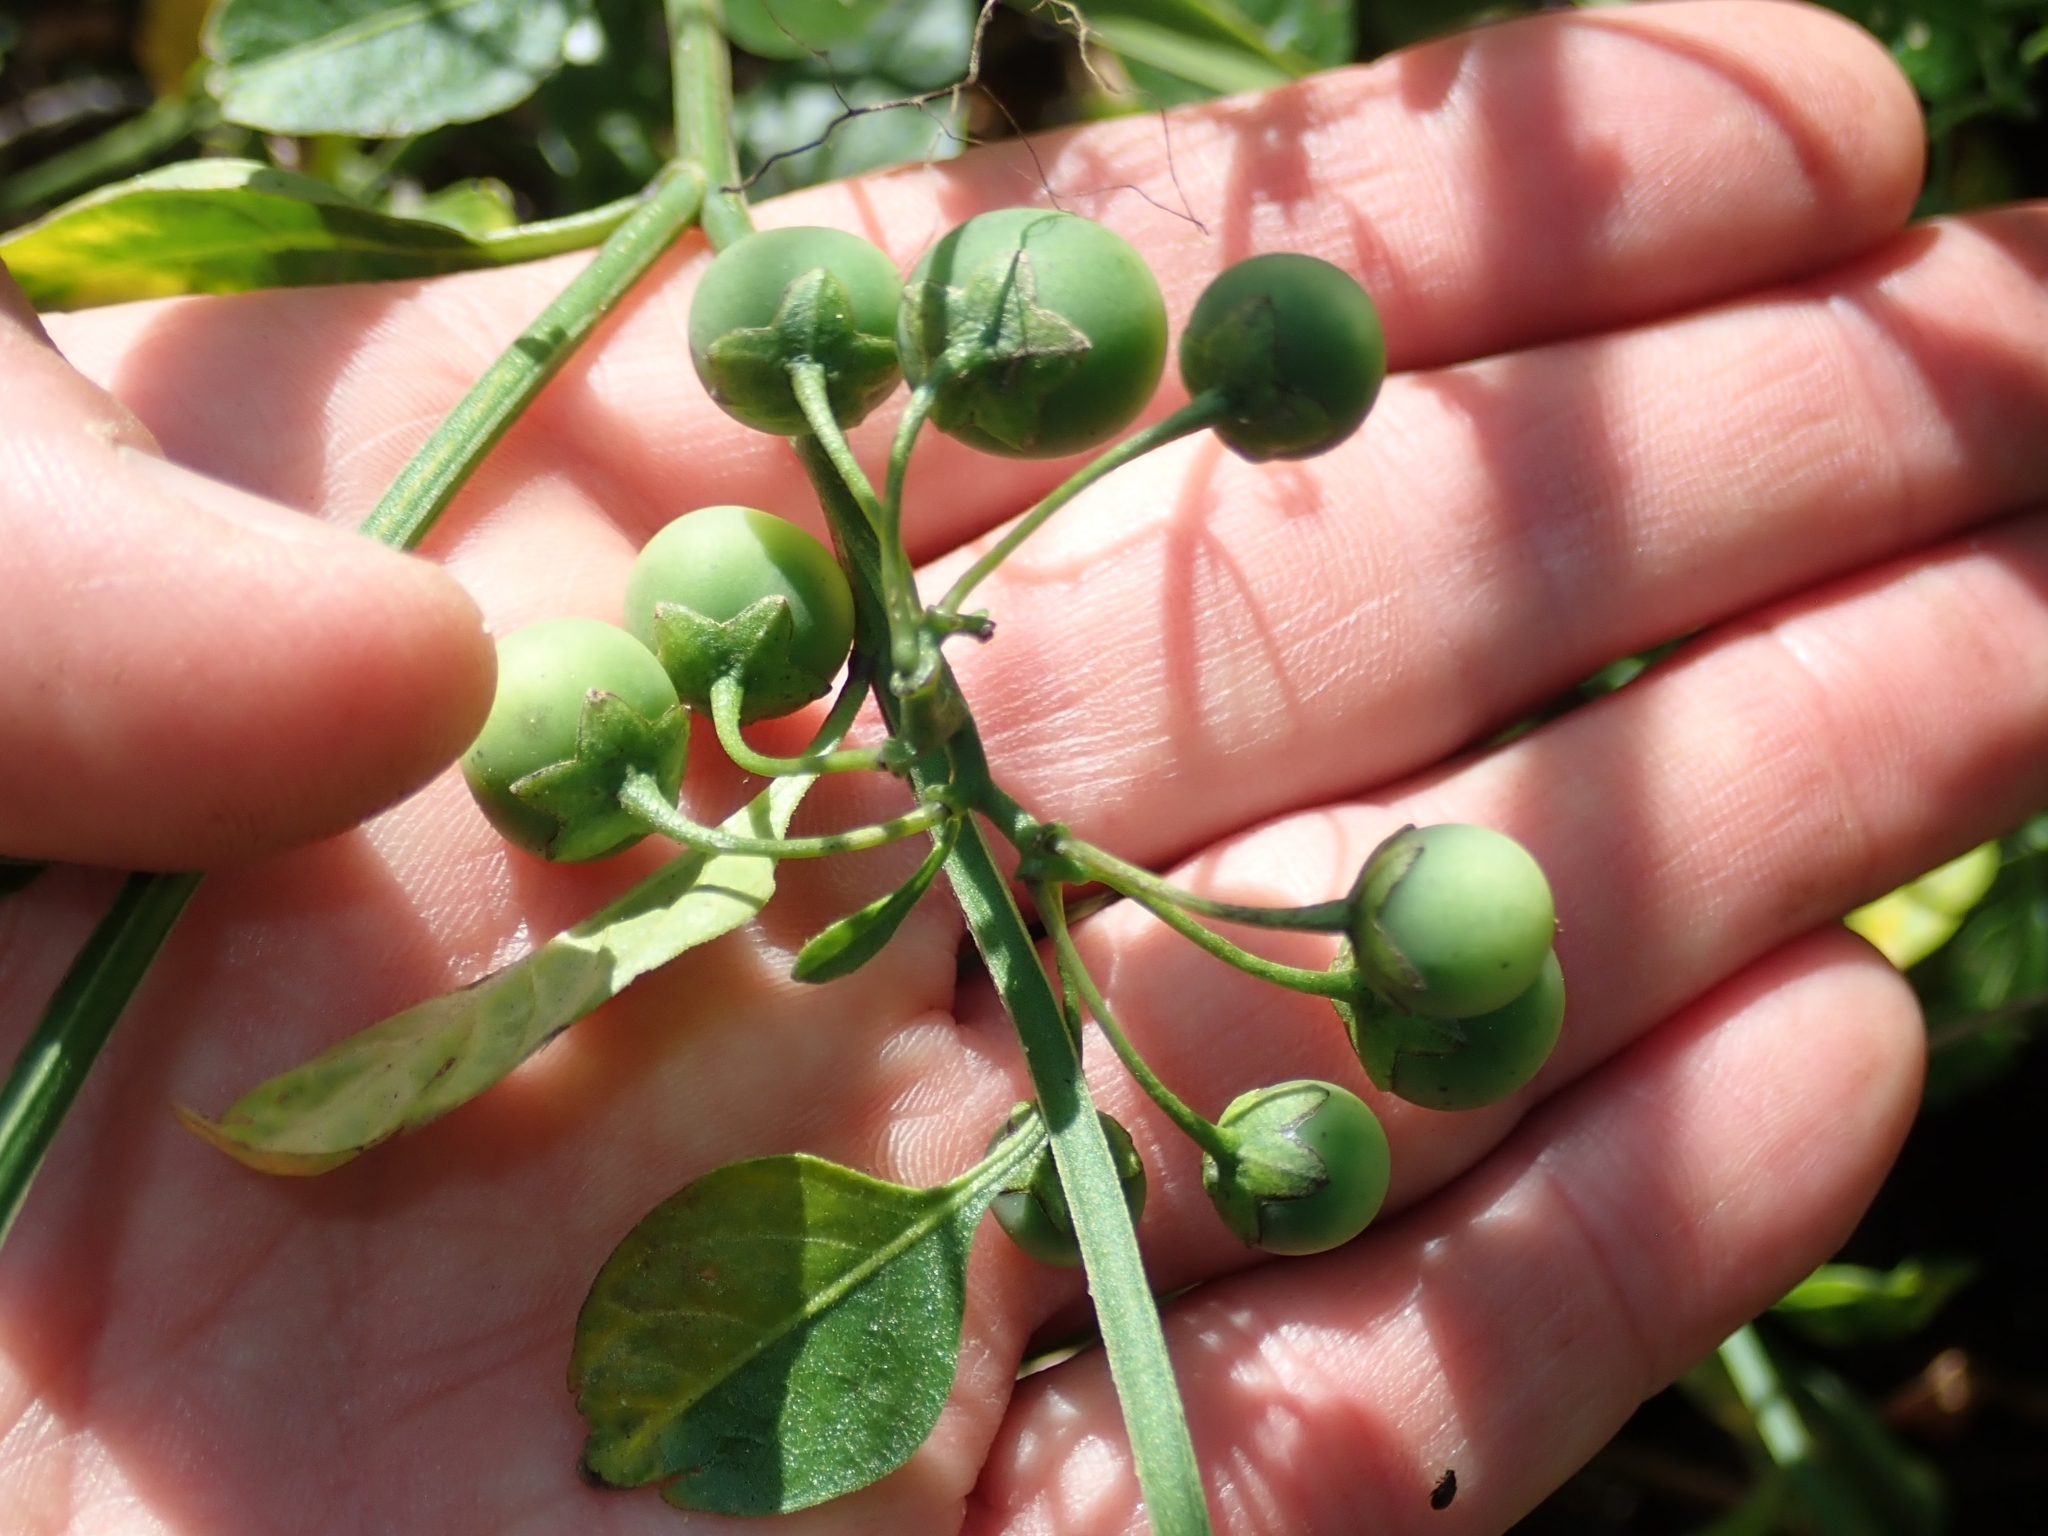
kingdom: Plantae
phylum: Tracheophyta
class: Magnoliopsida
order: Solanales
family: Solanaceae
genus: Solanum
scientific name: Solanum umbelliferum
